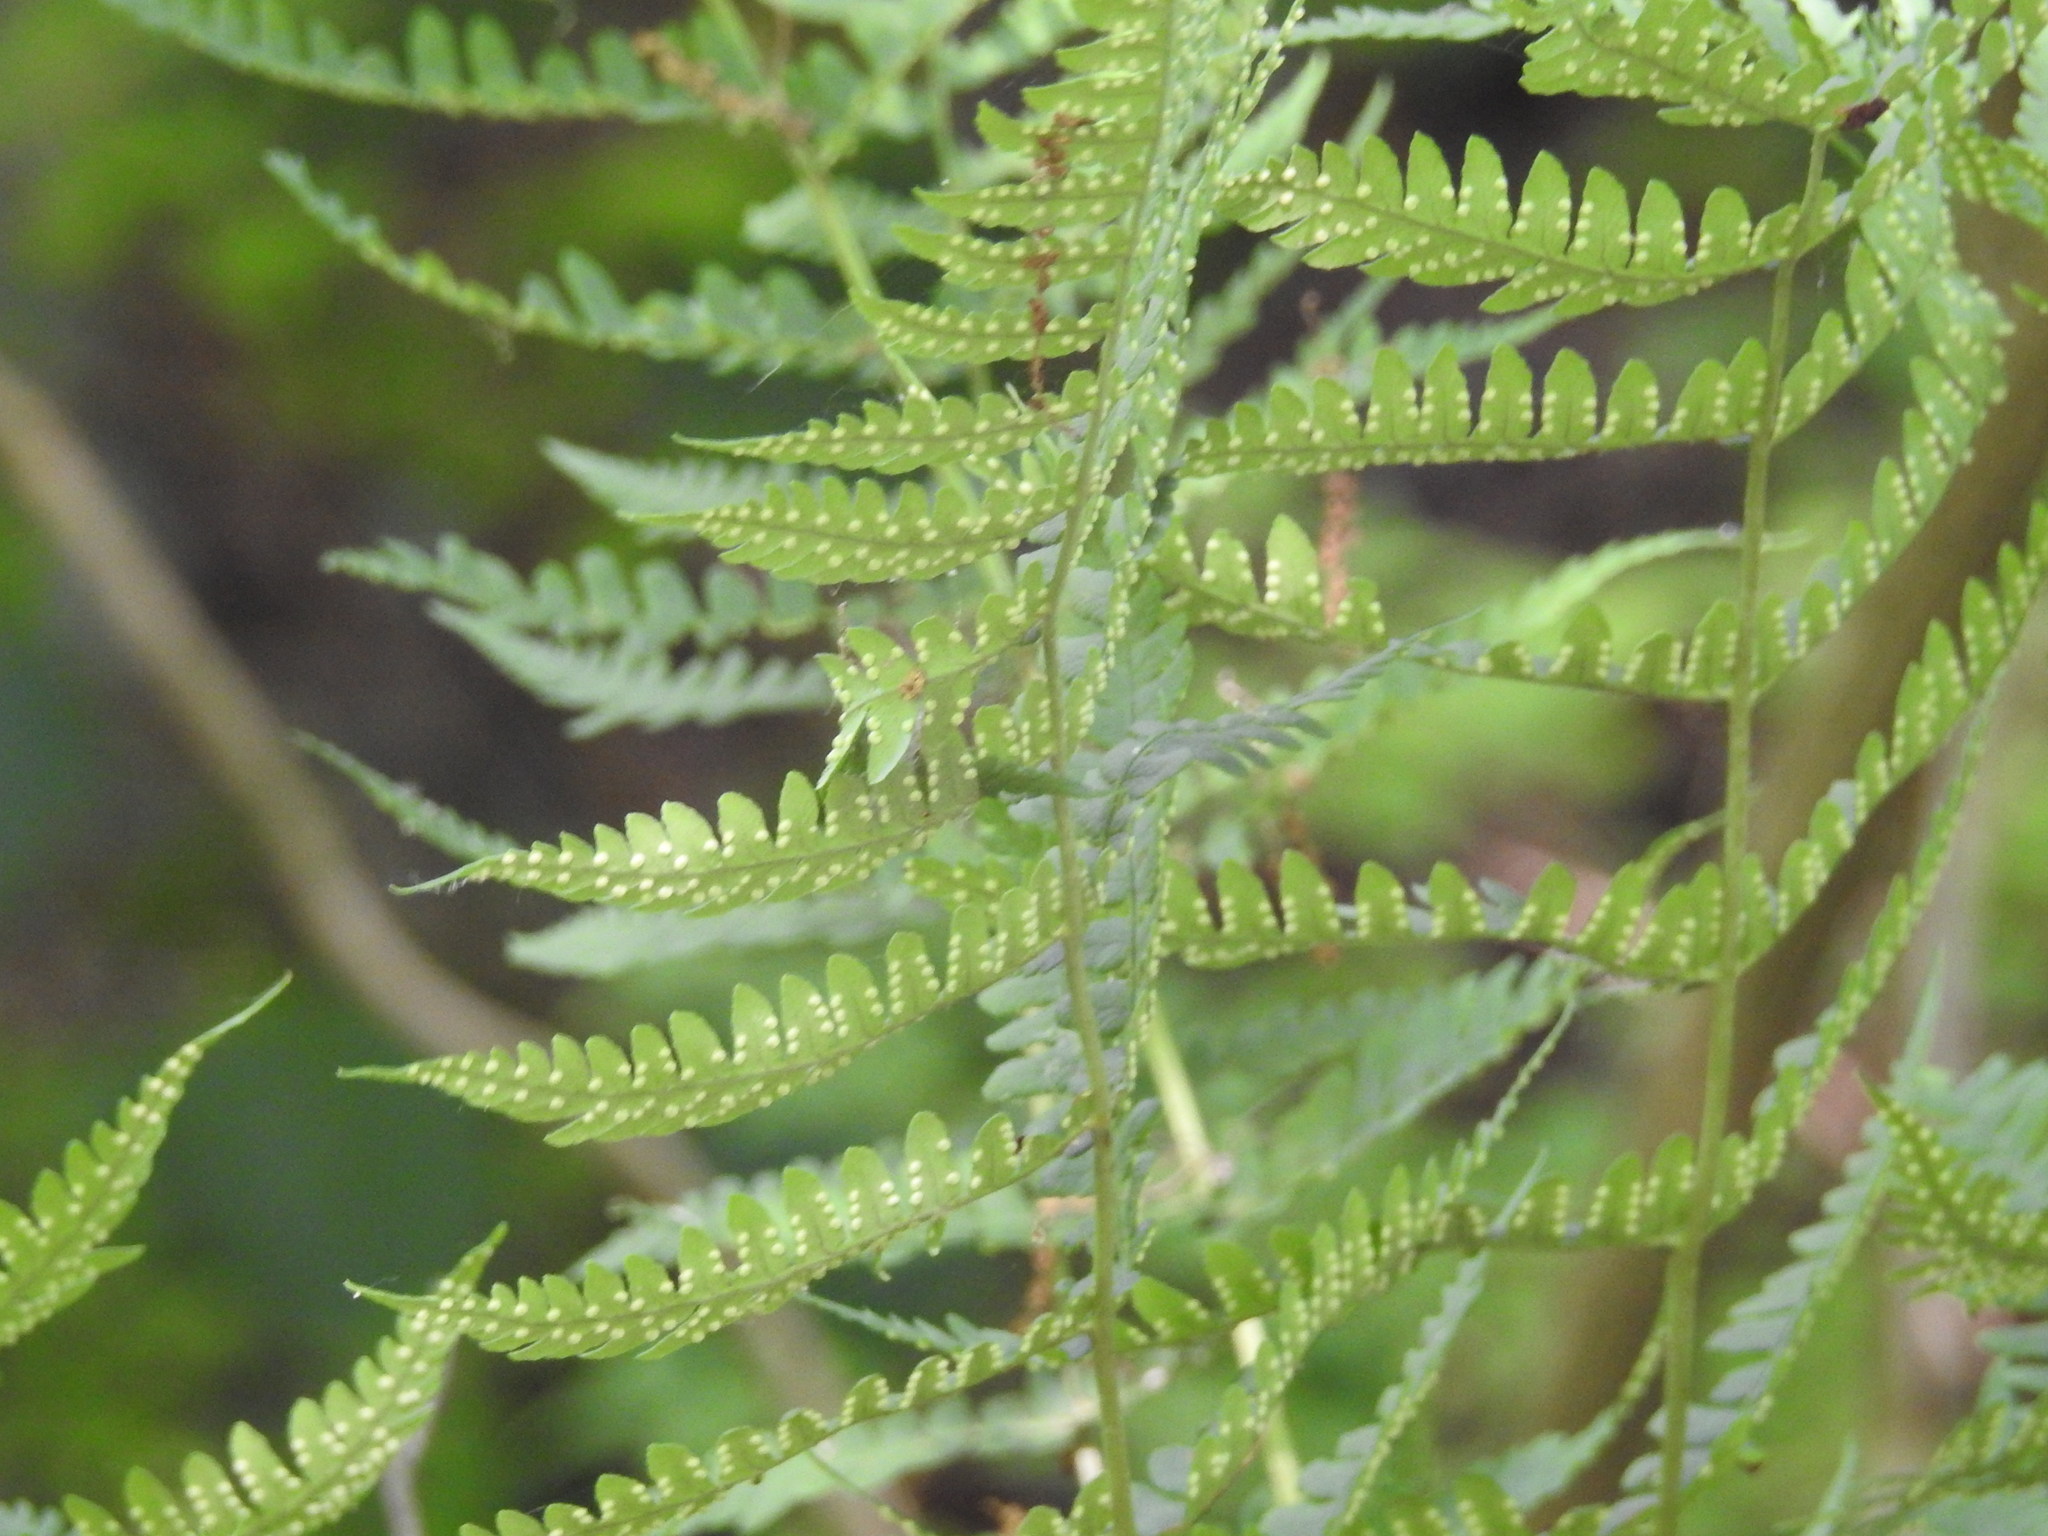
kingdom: Plantae
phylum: Tracheophyta
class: Polypodiopsida
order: Polypodiales
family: Dryopteridaceae
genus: Dryopteris
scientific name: Dryopteris marginalis
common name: Marginal wood fern
